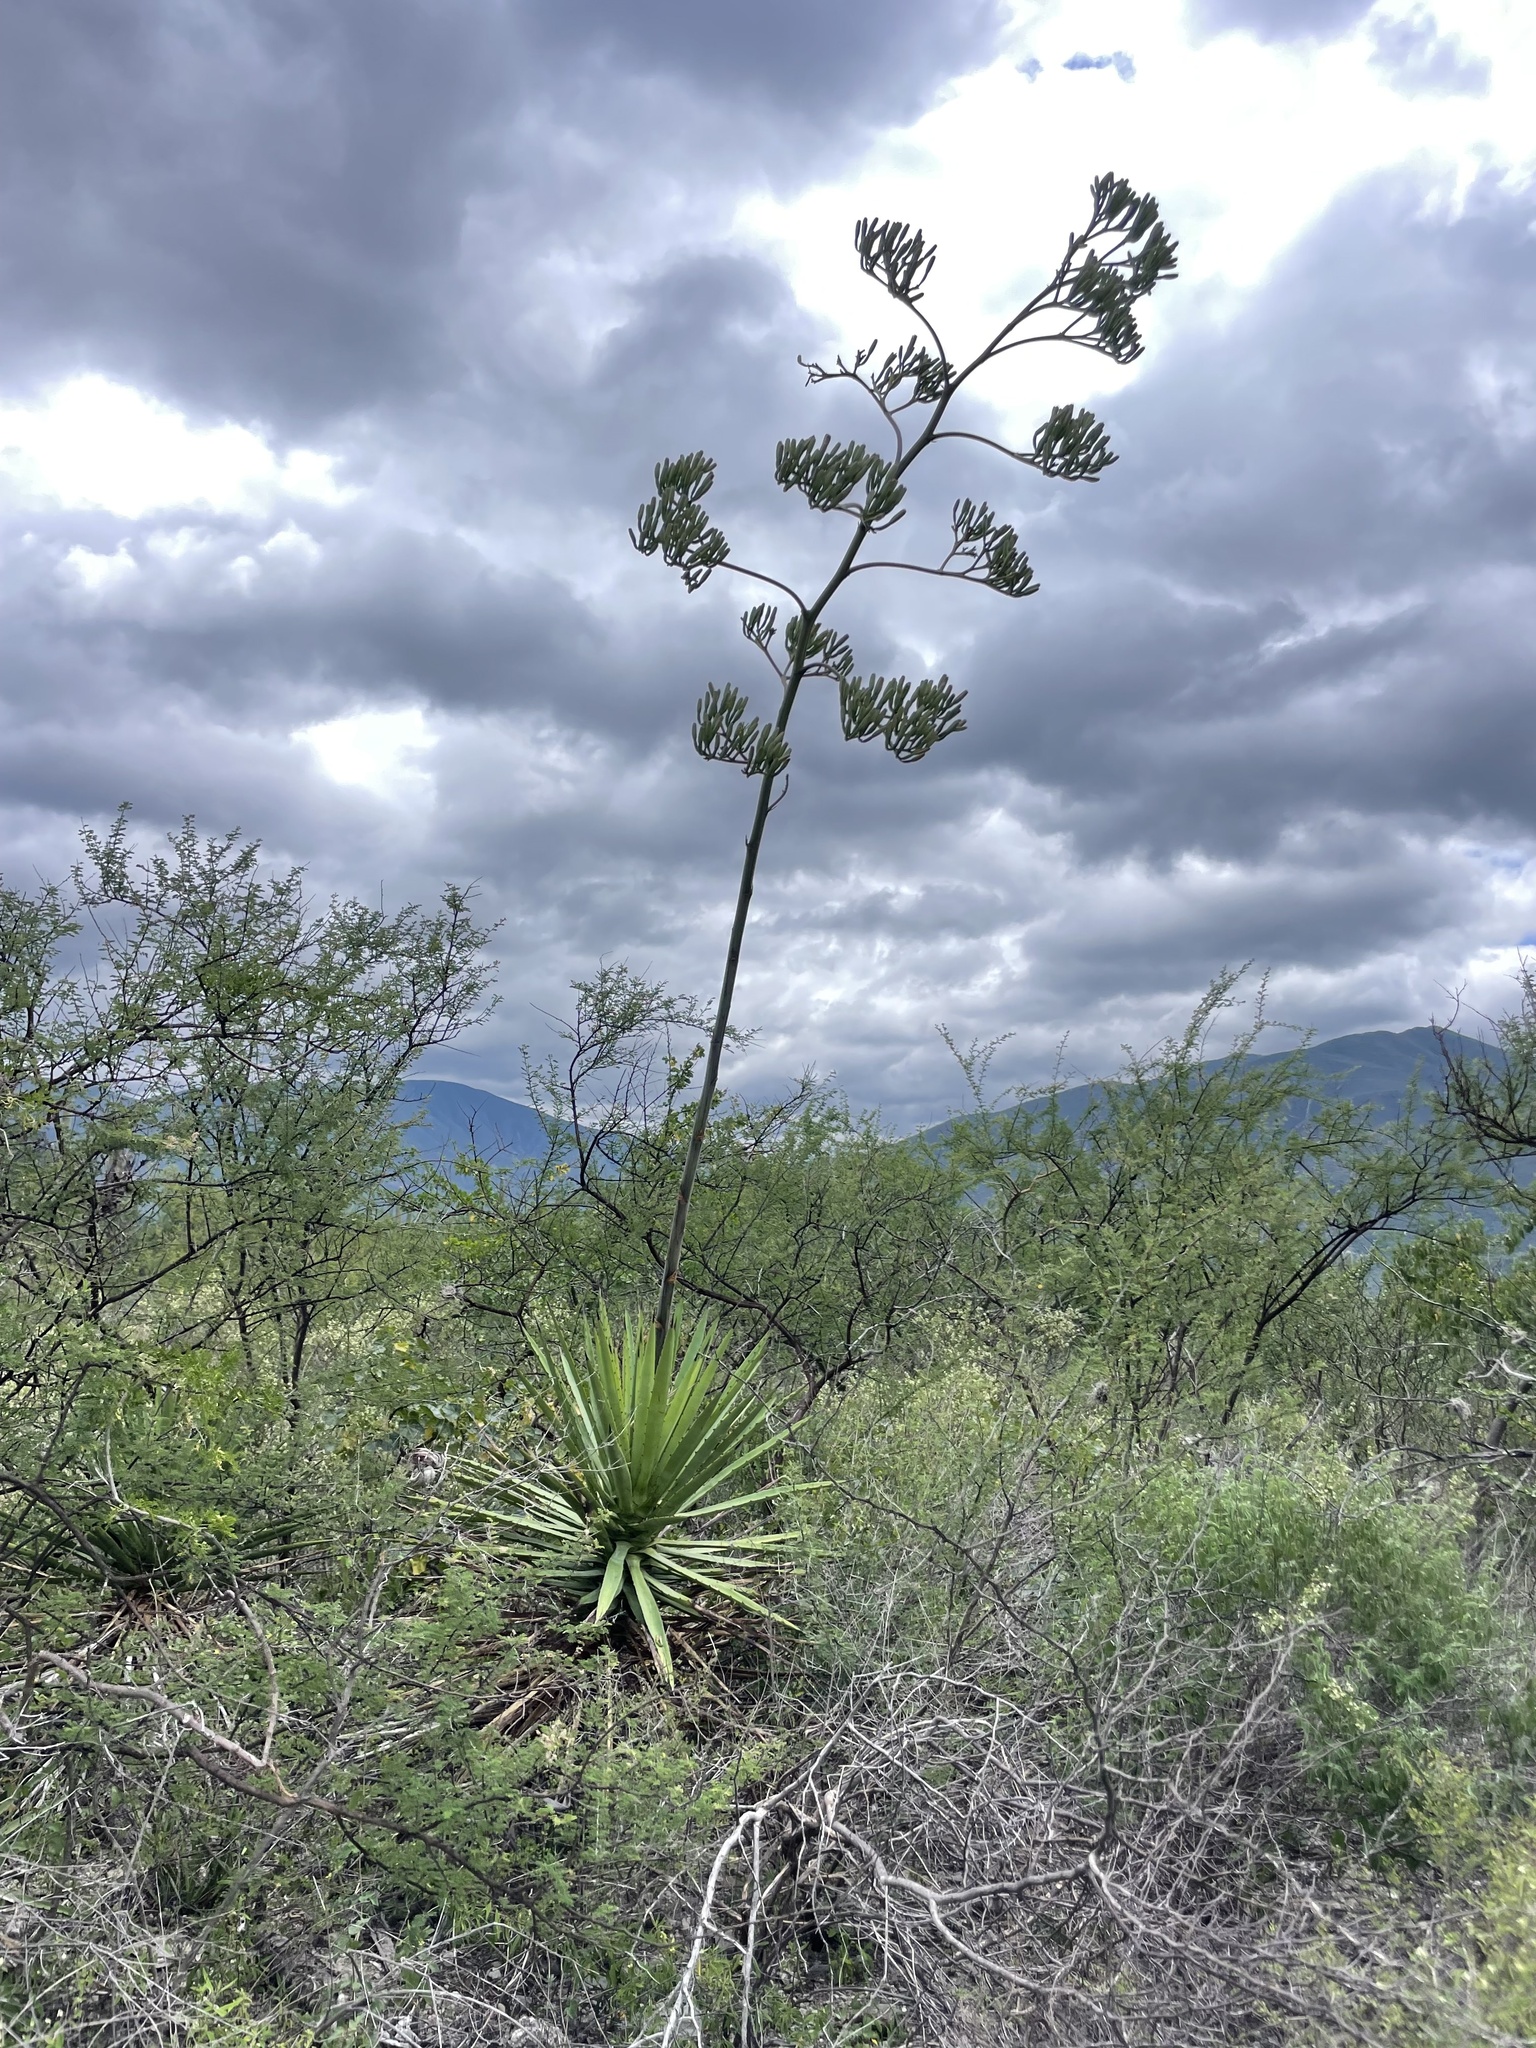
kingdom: Plantae
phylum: Tracheophyta
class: Liliopsida
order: Asparagales
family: Asparagaceae
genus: Agave
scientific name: Agave karwinskii
